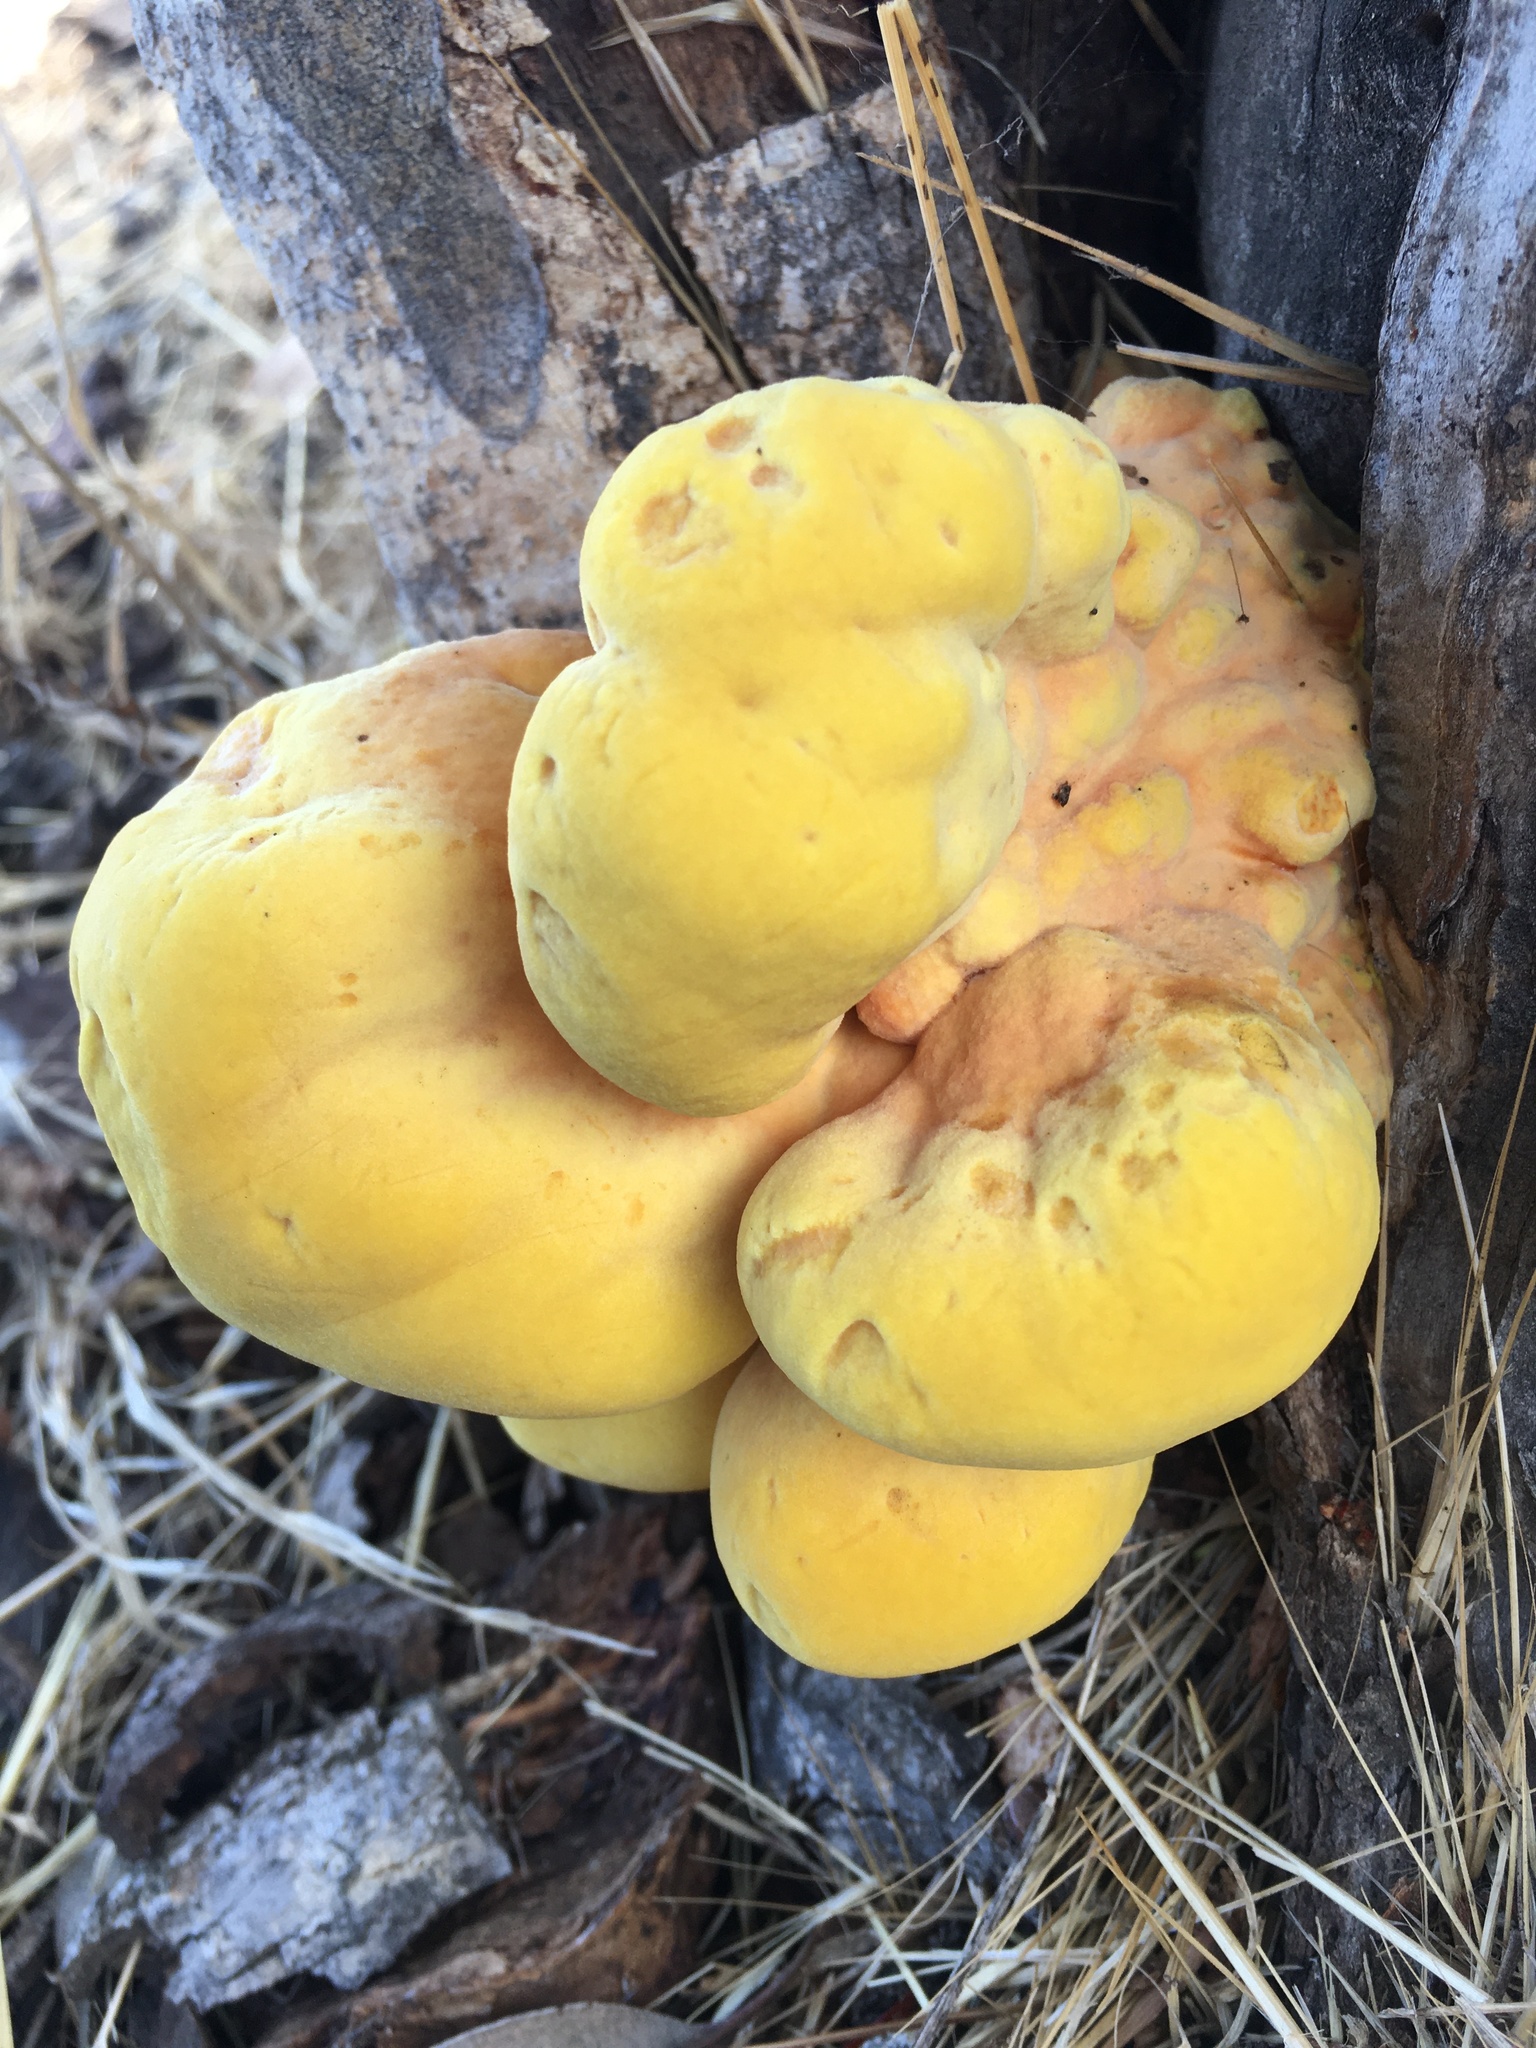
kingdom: Fungi
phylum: Basidiomycota
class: Agaricomycetes
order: Polyporales
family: Laetiporaceae
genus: Laetiporus
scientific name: Laetiporus gilbertsonii
